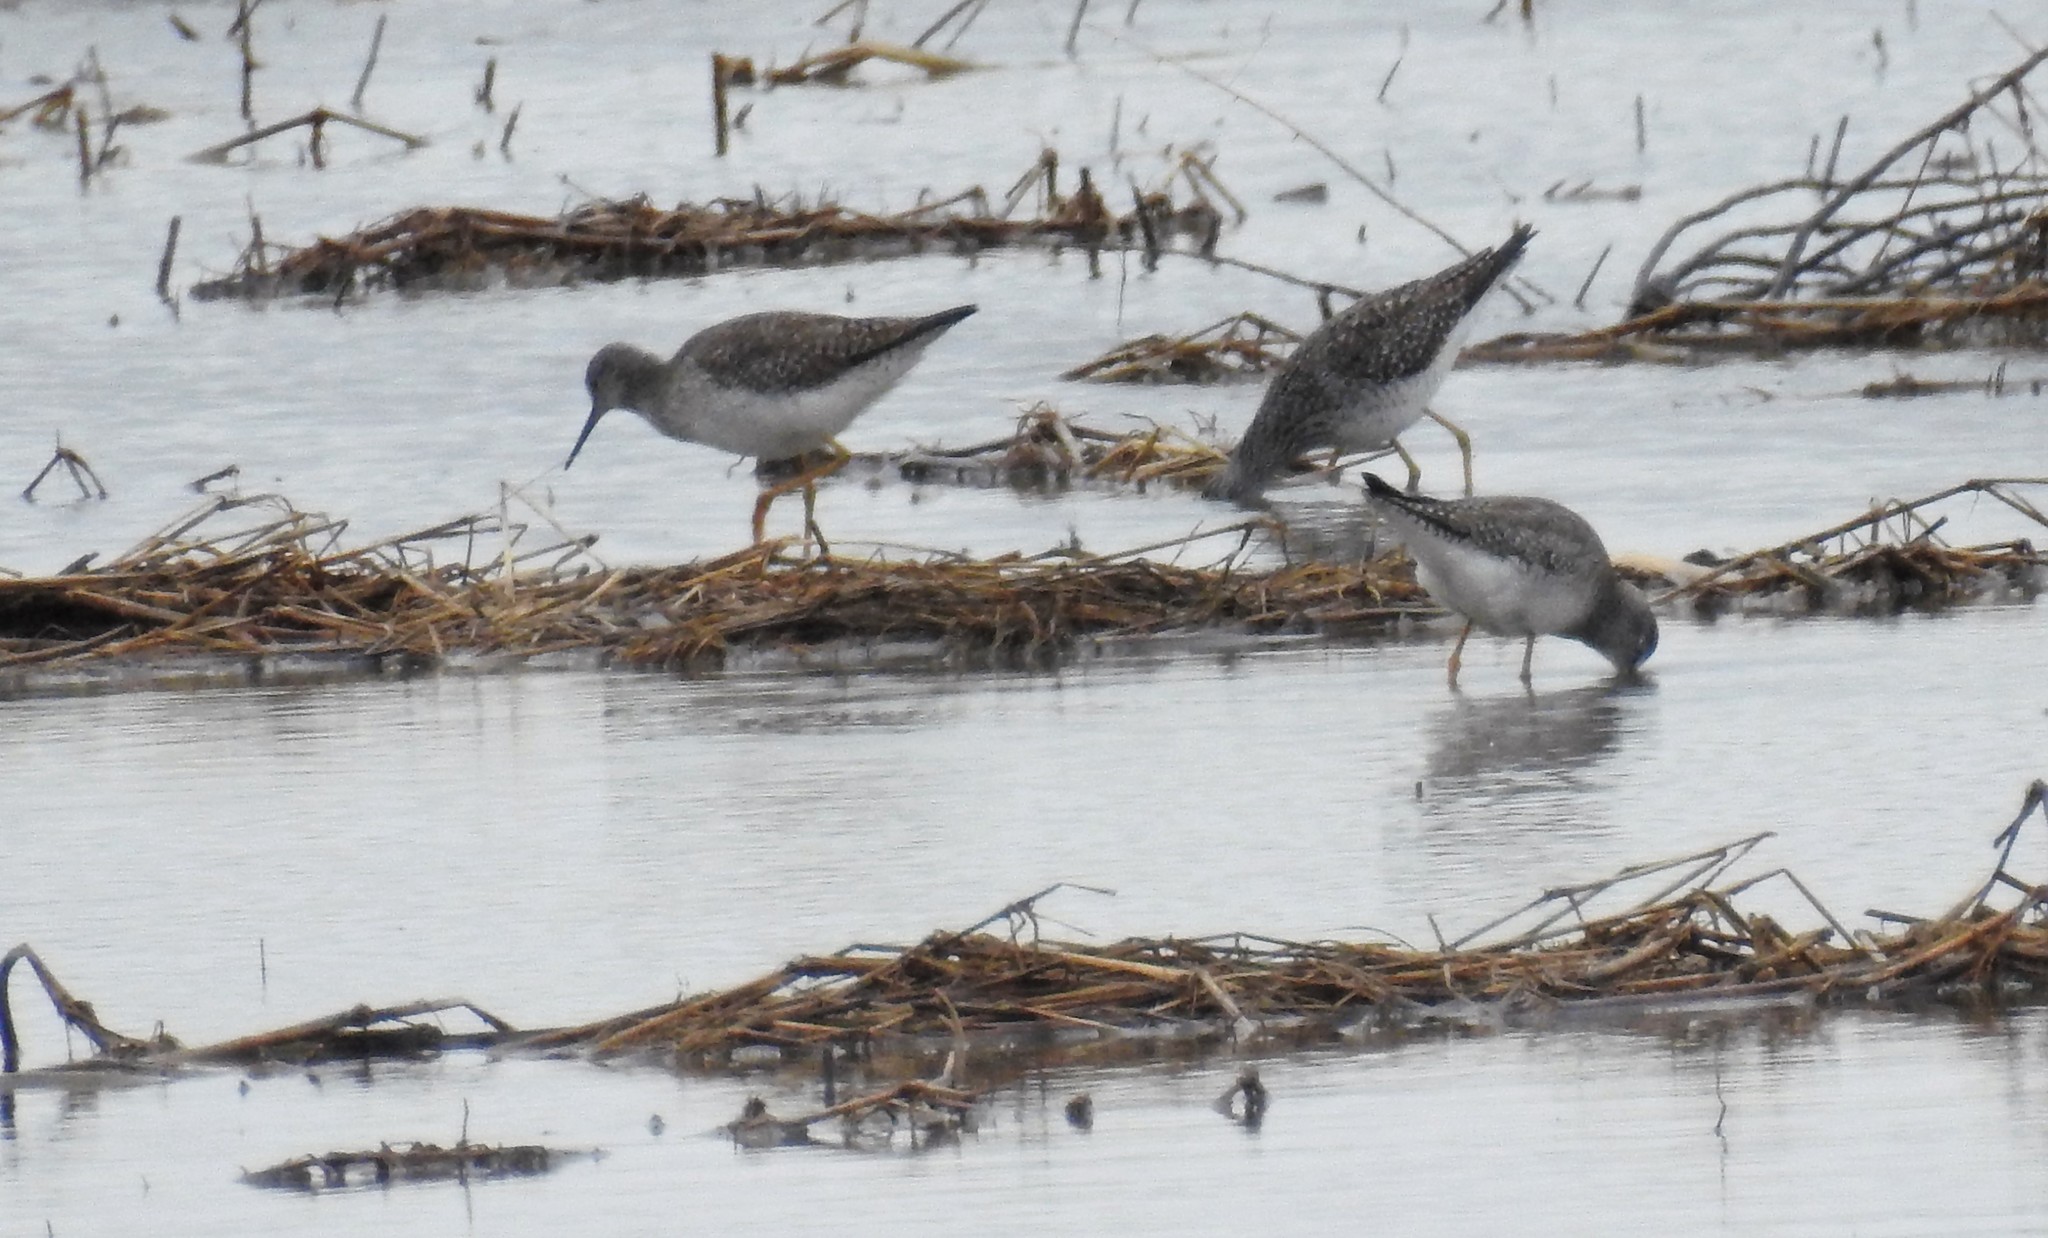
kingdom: Animalia
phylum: Chordata
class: Aves
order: Charadriiformes
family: Scolopacidae
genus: Tringa
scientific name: Tringa flavipes
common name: Lesser yellowlegs
